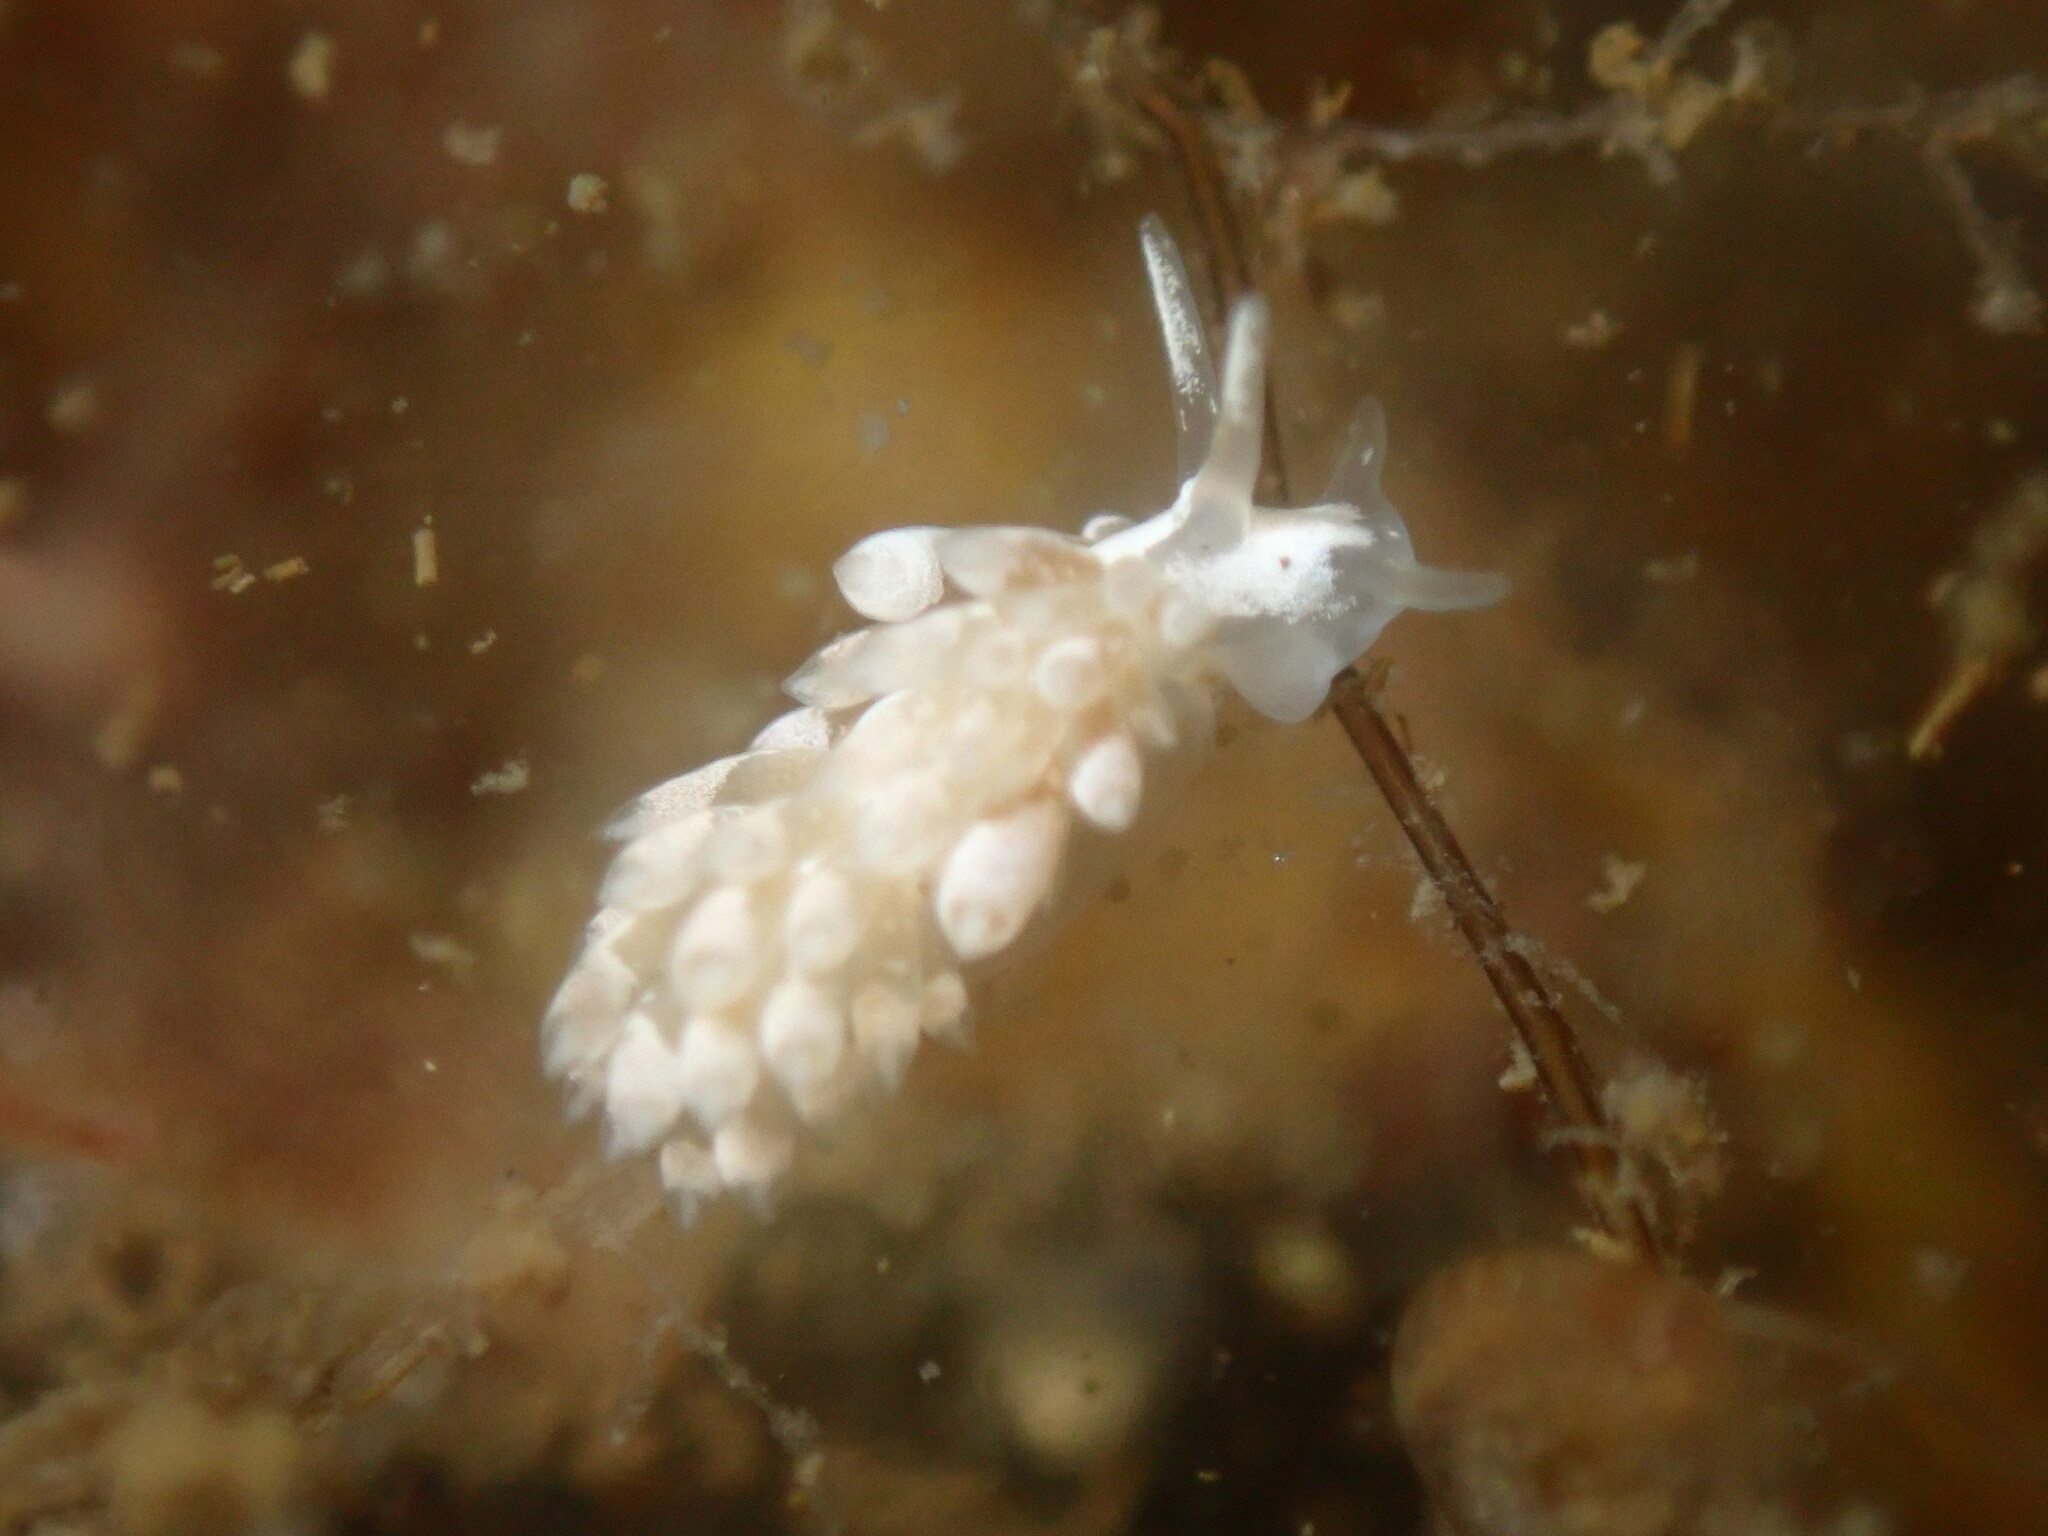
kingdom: Animalia
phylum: Mollusca
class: Gastropoda
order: Nudibranchia
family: Trinchesiidae
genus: Trinchesia
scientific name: Trinchesia albocrusta
